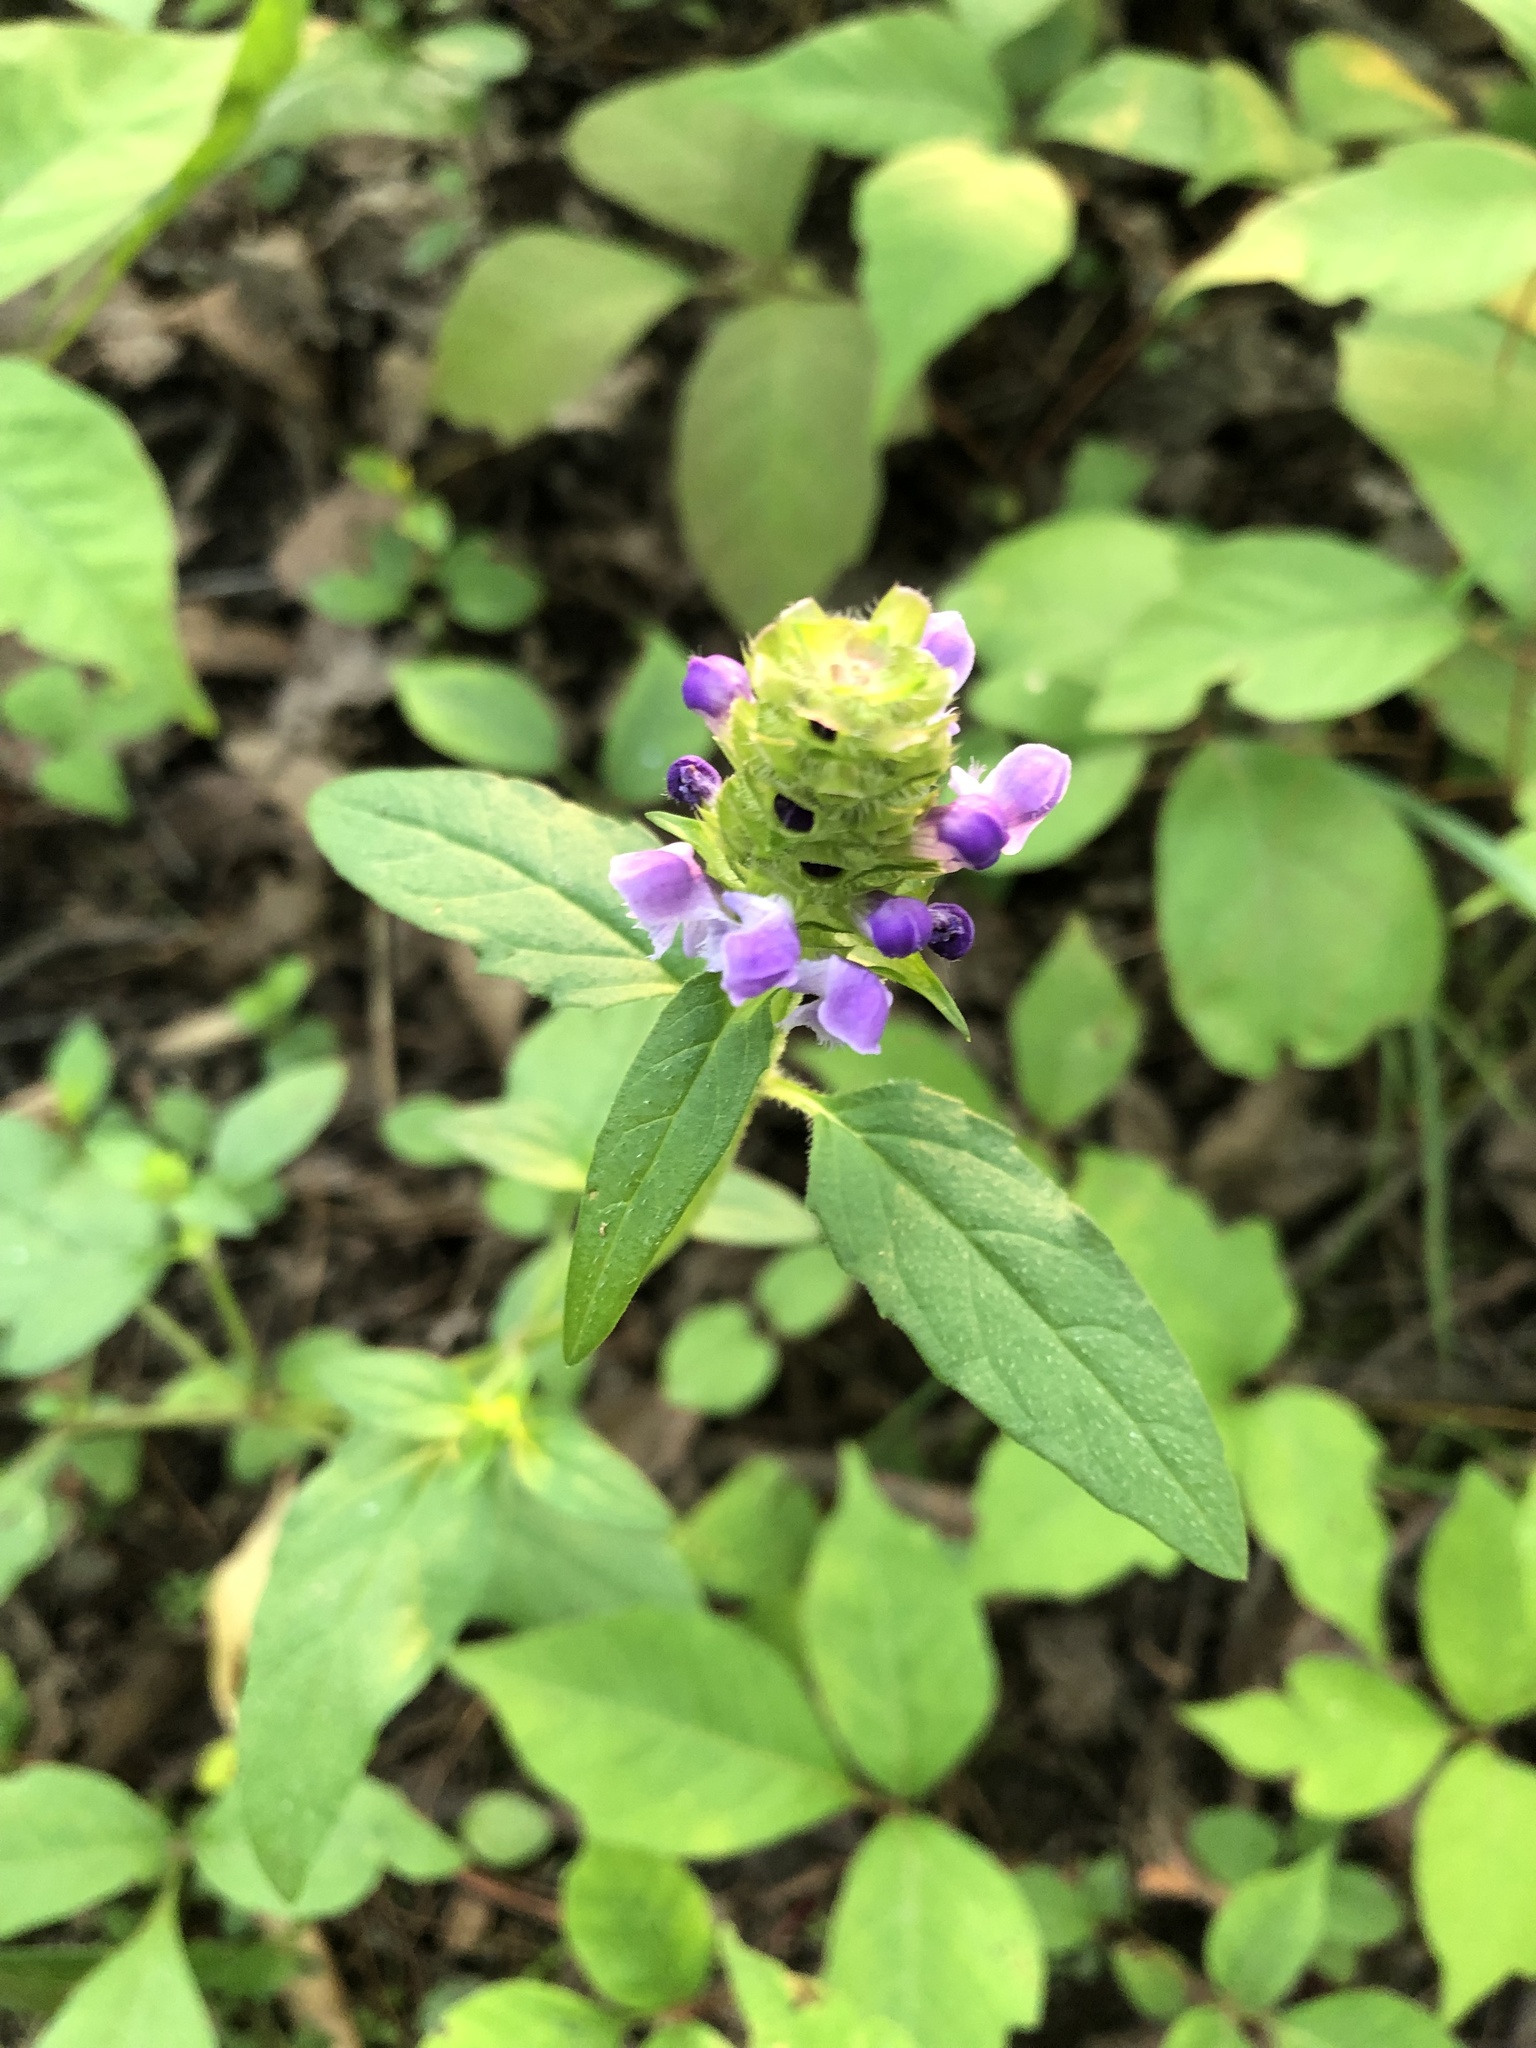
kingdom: Plantae
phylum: Tracheophyta
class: Magnoliopsida
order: Lamiales
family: Lamiaceae
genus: Prunella
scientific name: Prunella vulgaris
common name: Heal-all
